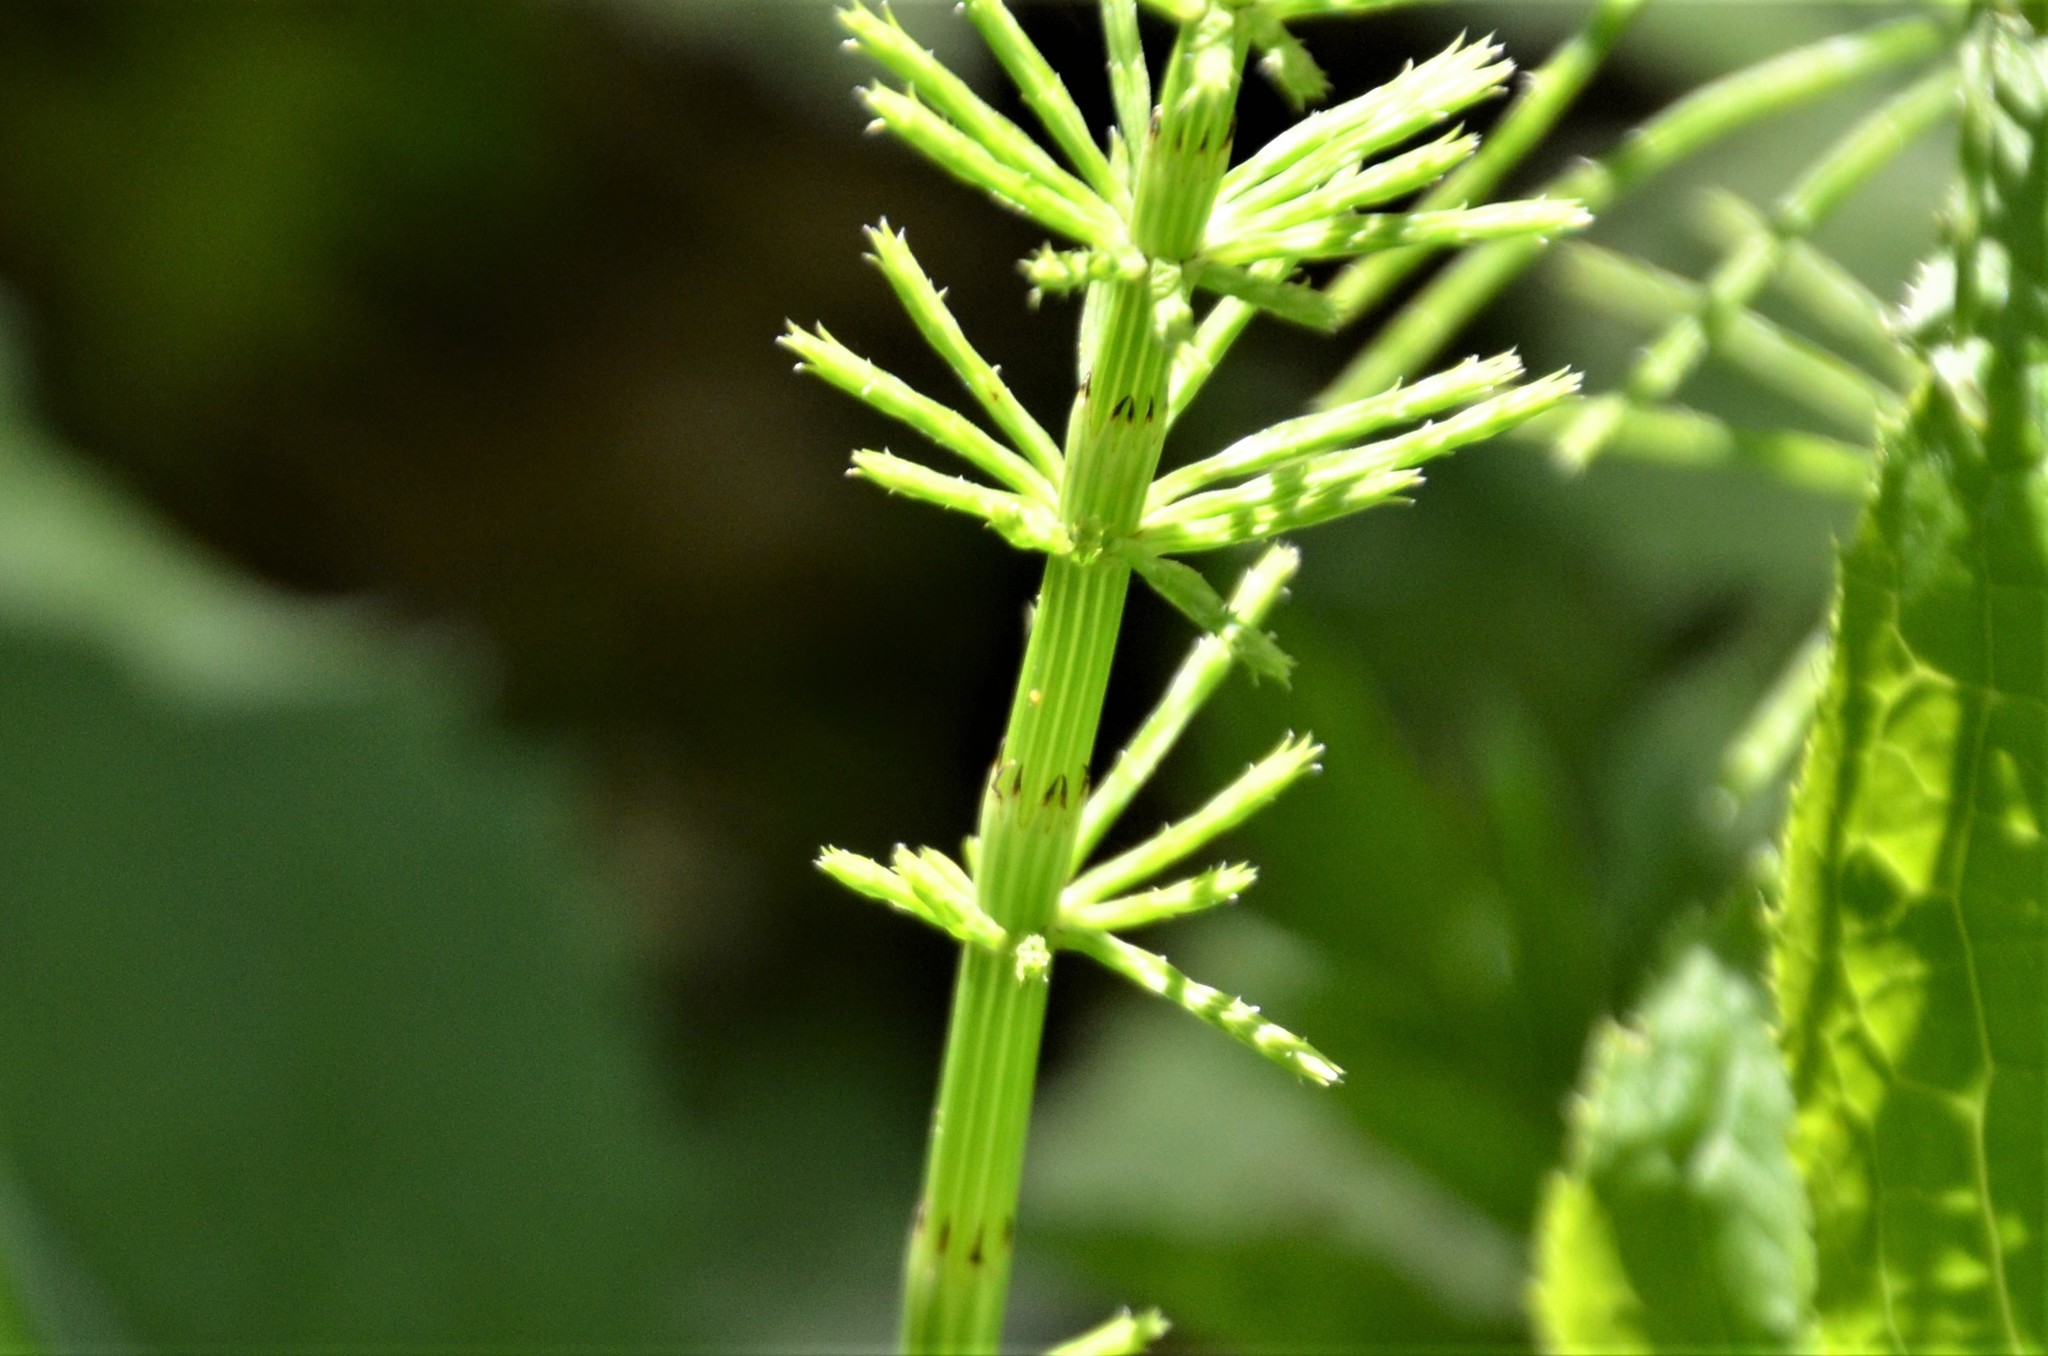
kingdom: Plantae
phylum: Tracheophyta
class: Polypodiopsida
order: Equisetales
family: Equisetaceae
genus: Equisetum
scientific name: Equisetum arvense
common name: Field horsetail
